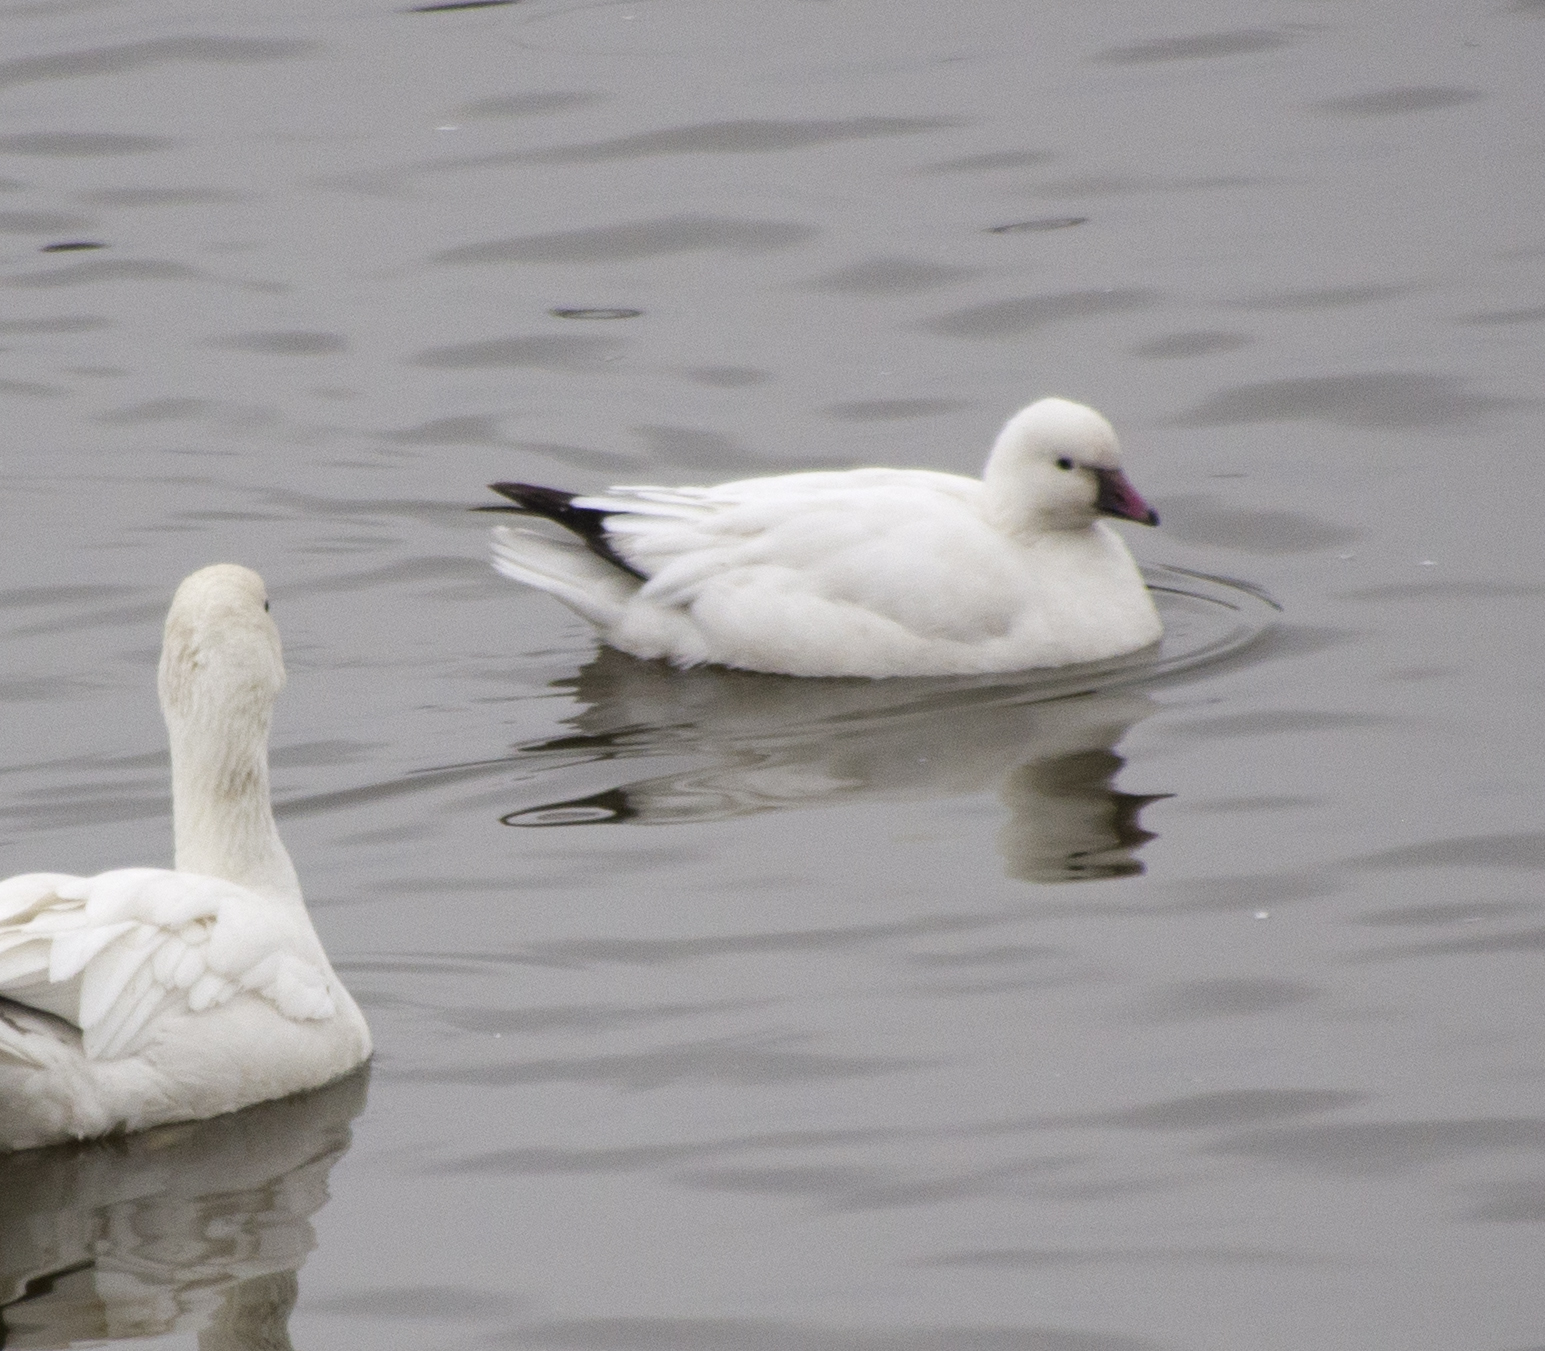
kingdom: Animalia
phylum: Chordata
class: Aves
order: Anseriformes
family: Anatidae
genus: Anser
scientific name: Anser rossii
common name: Ross's goose
